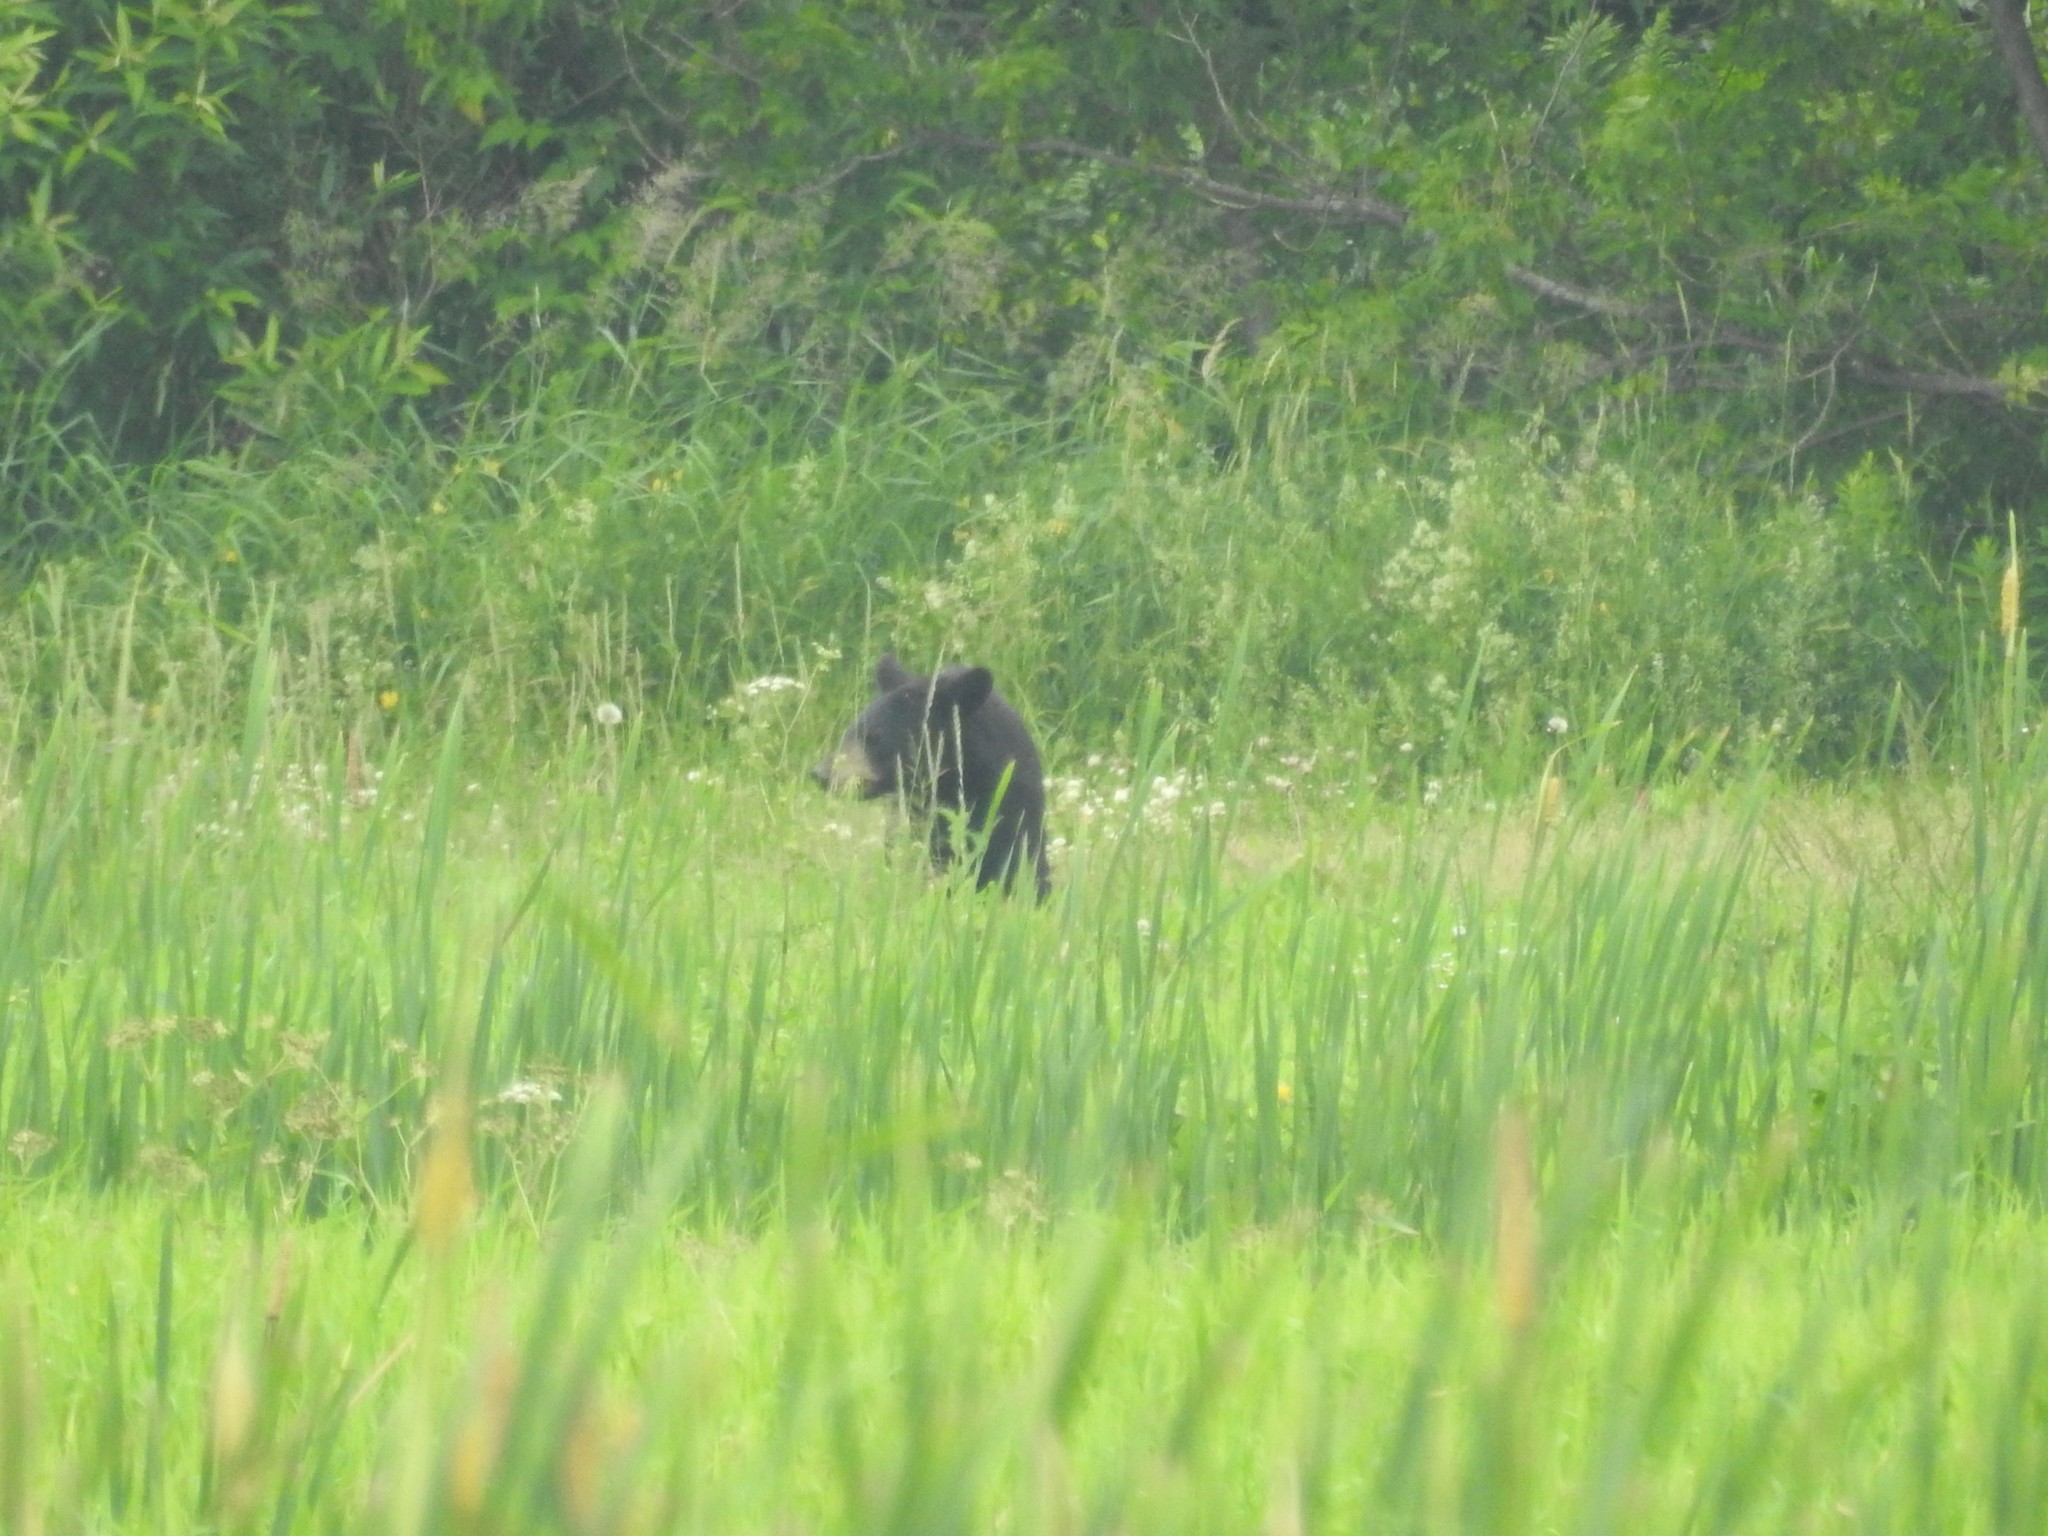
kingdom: Animalia
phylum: Chordata
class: Mammalia
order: Carnivora
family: Ursidae
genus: Ursus
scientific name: Ursus americanus
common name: American black bear
